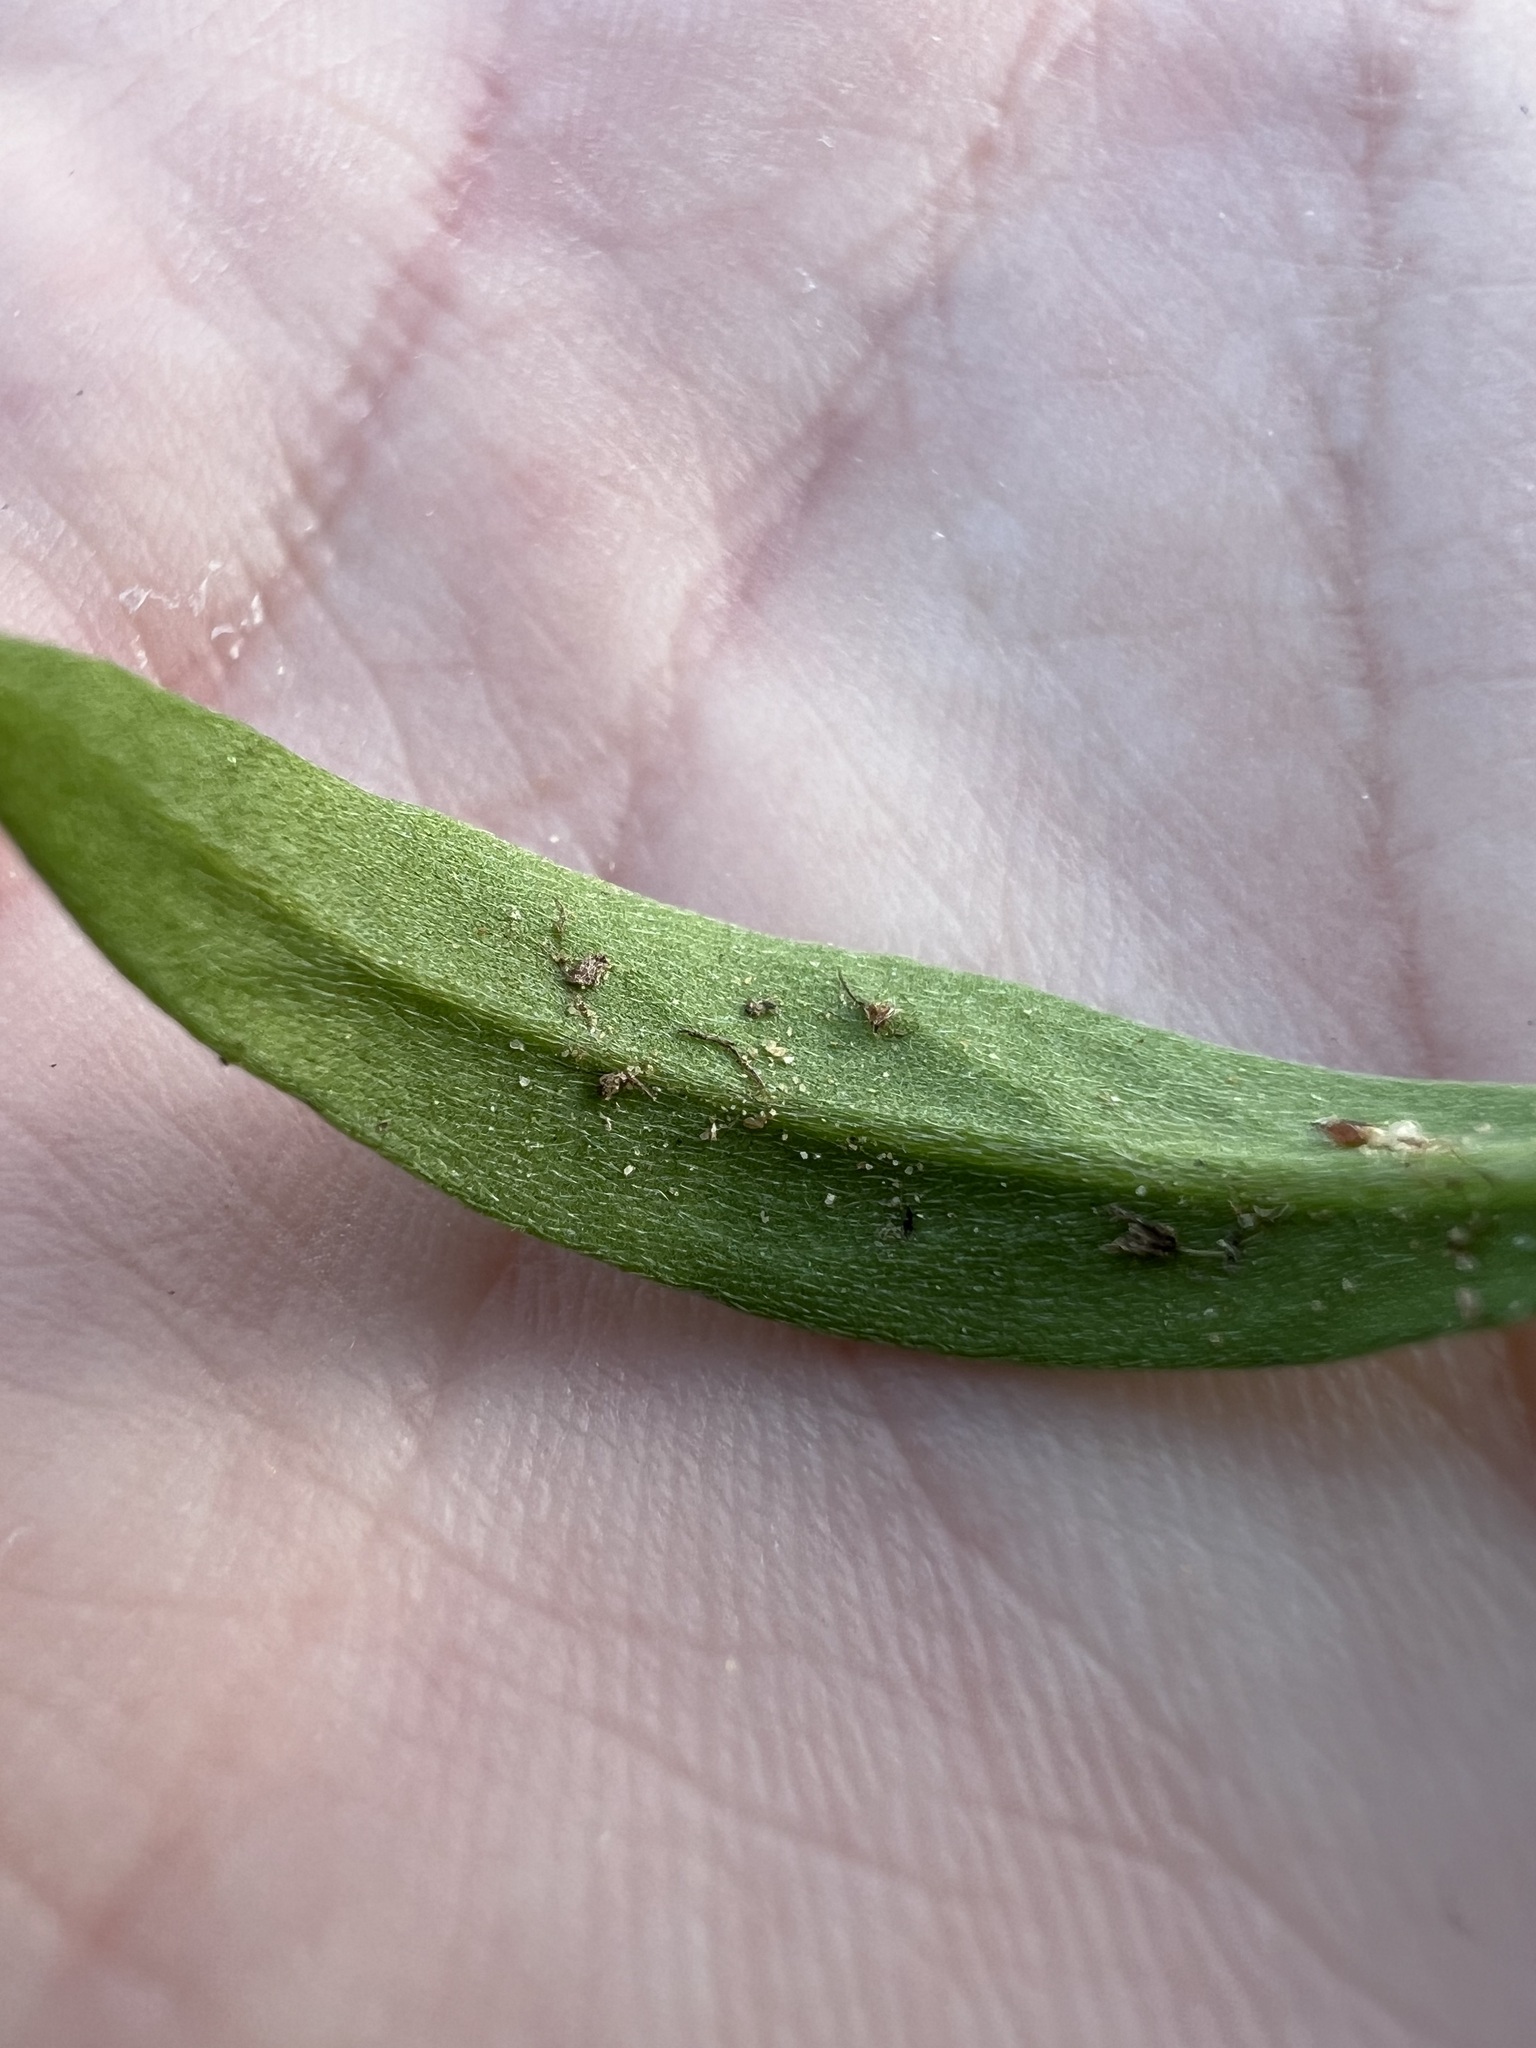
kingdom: Plantae
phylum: Tracheophyta
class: Magnoliopsida
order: Brassicales
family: Brassicaceae
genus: Lobularia
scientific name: Lobularia maritima
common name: Sweet alison
